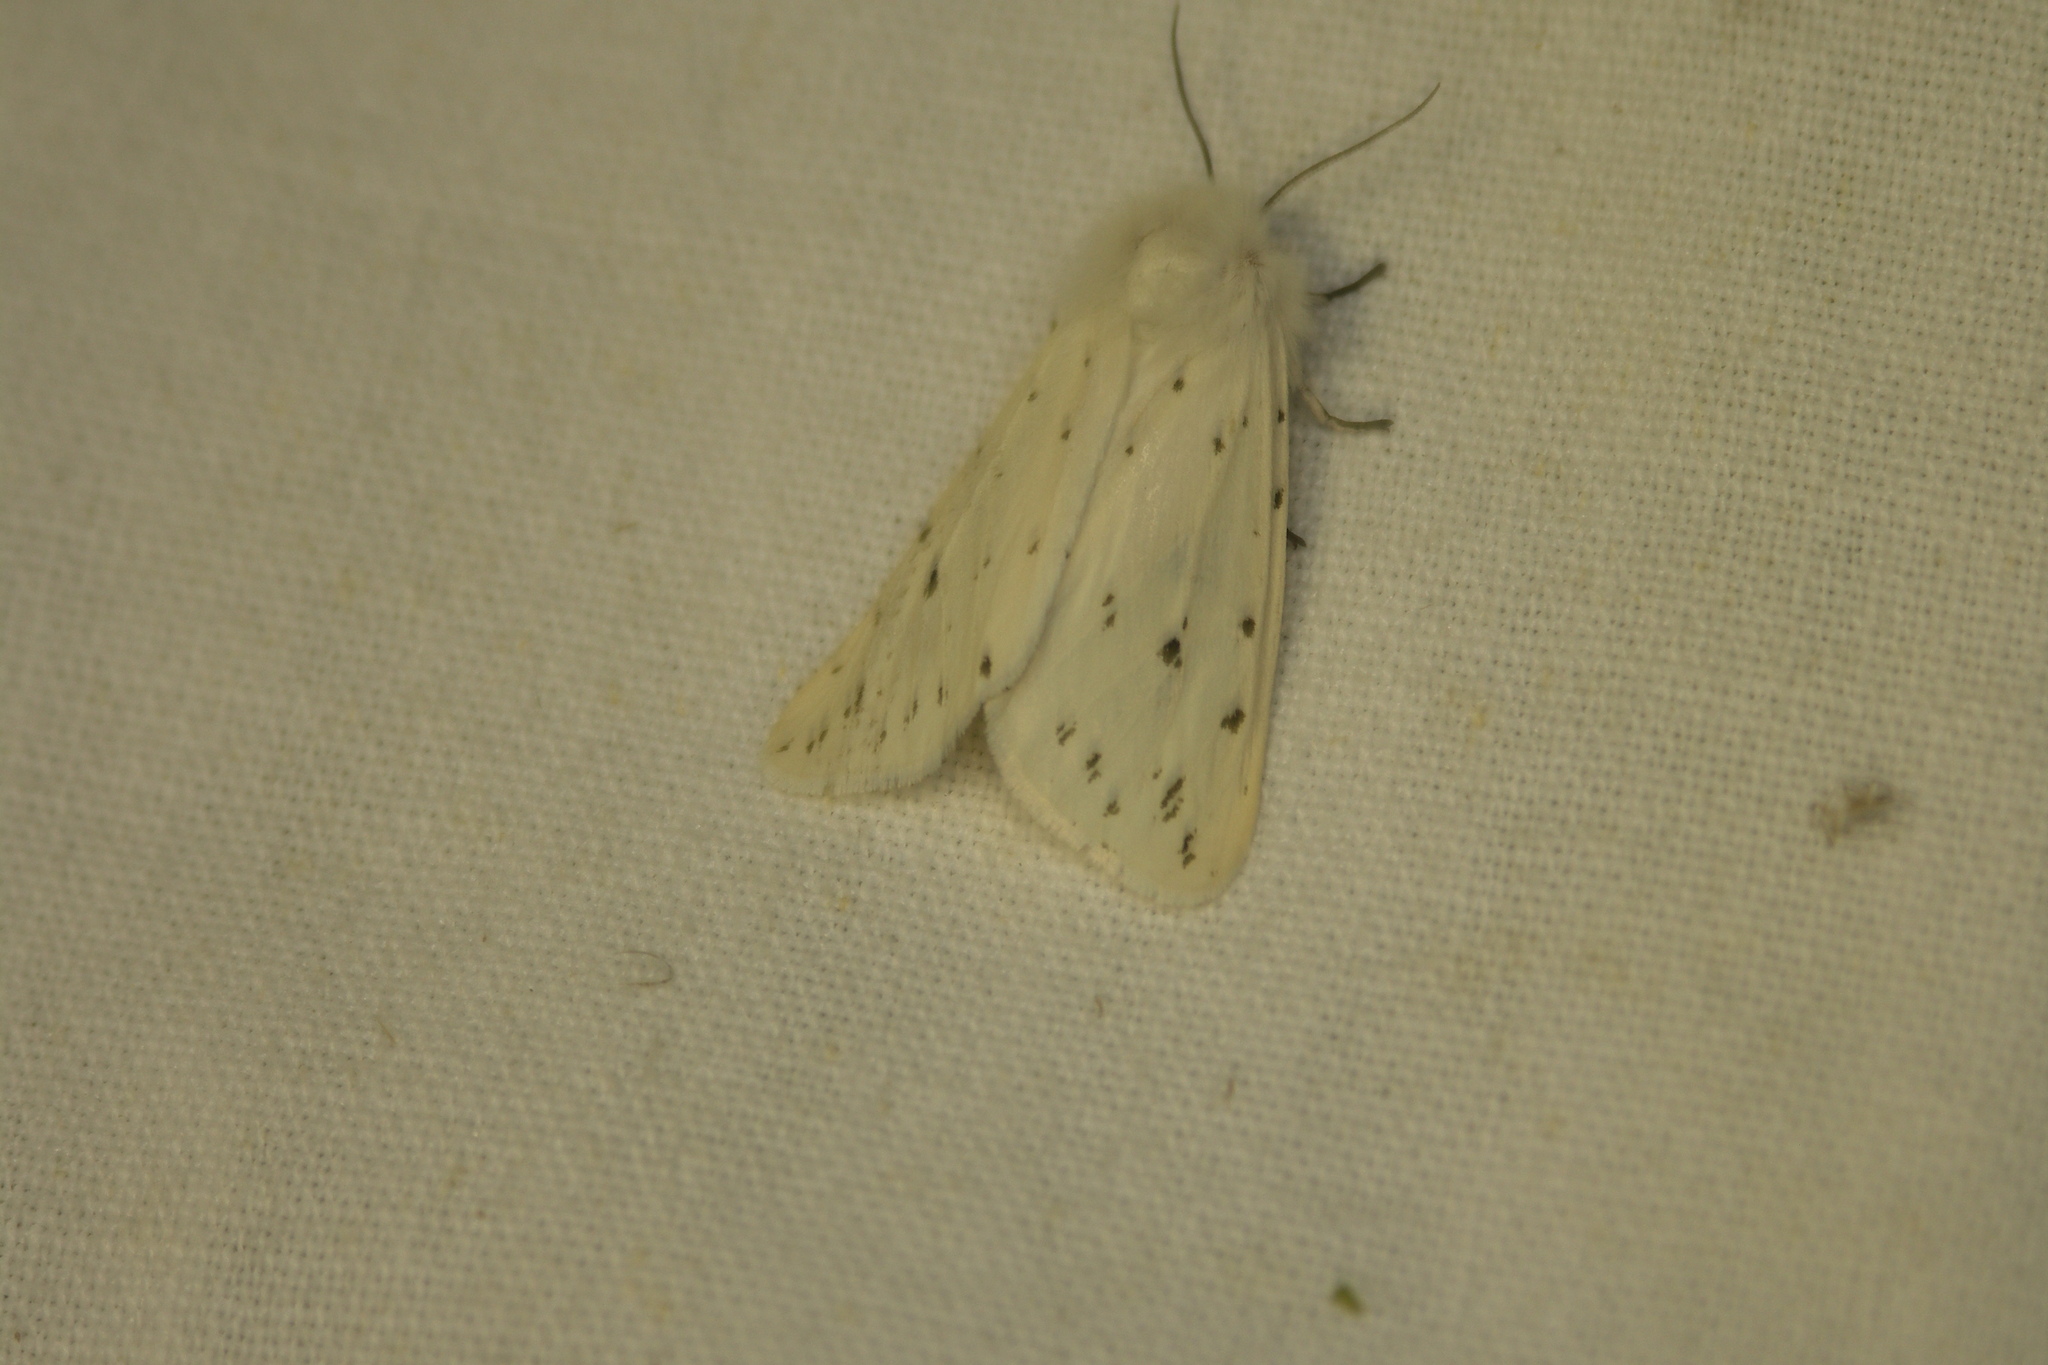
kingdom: Animalia
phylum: Arthropoda
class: Insecta
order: Lepidoptera
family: Erebidae
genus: Spilosoma
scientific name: Spilosoma lubricipeda
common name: White ermine
